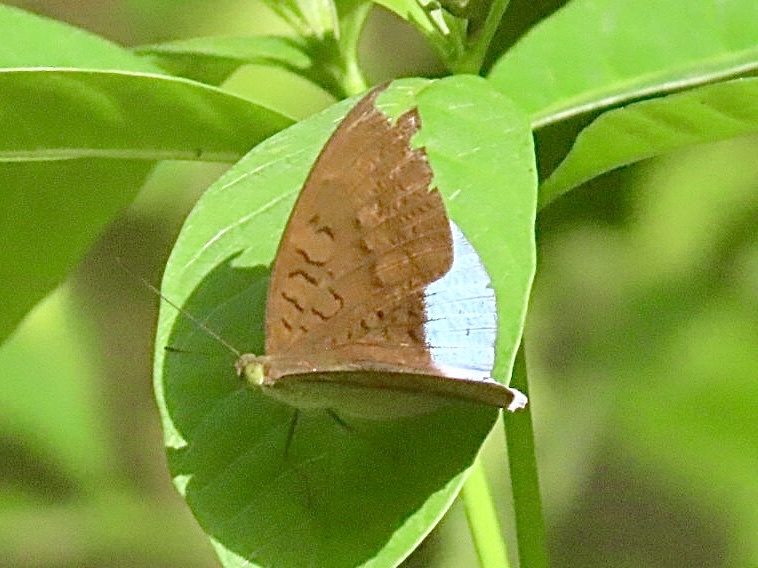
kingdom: Animalia
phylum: Arthropoda
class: Insecta
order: Lepidoptera
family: Nymphalidae
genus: Tanaecia
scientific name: Tanaecia julii
